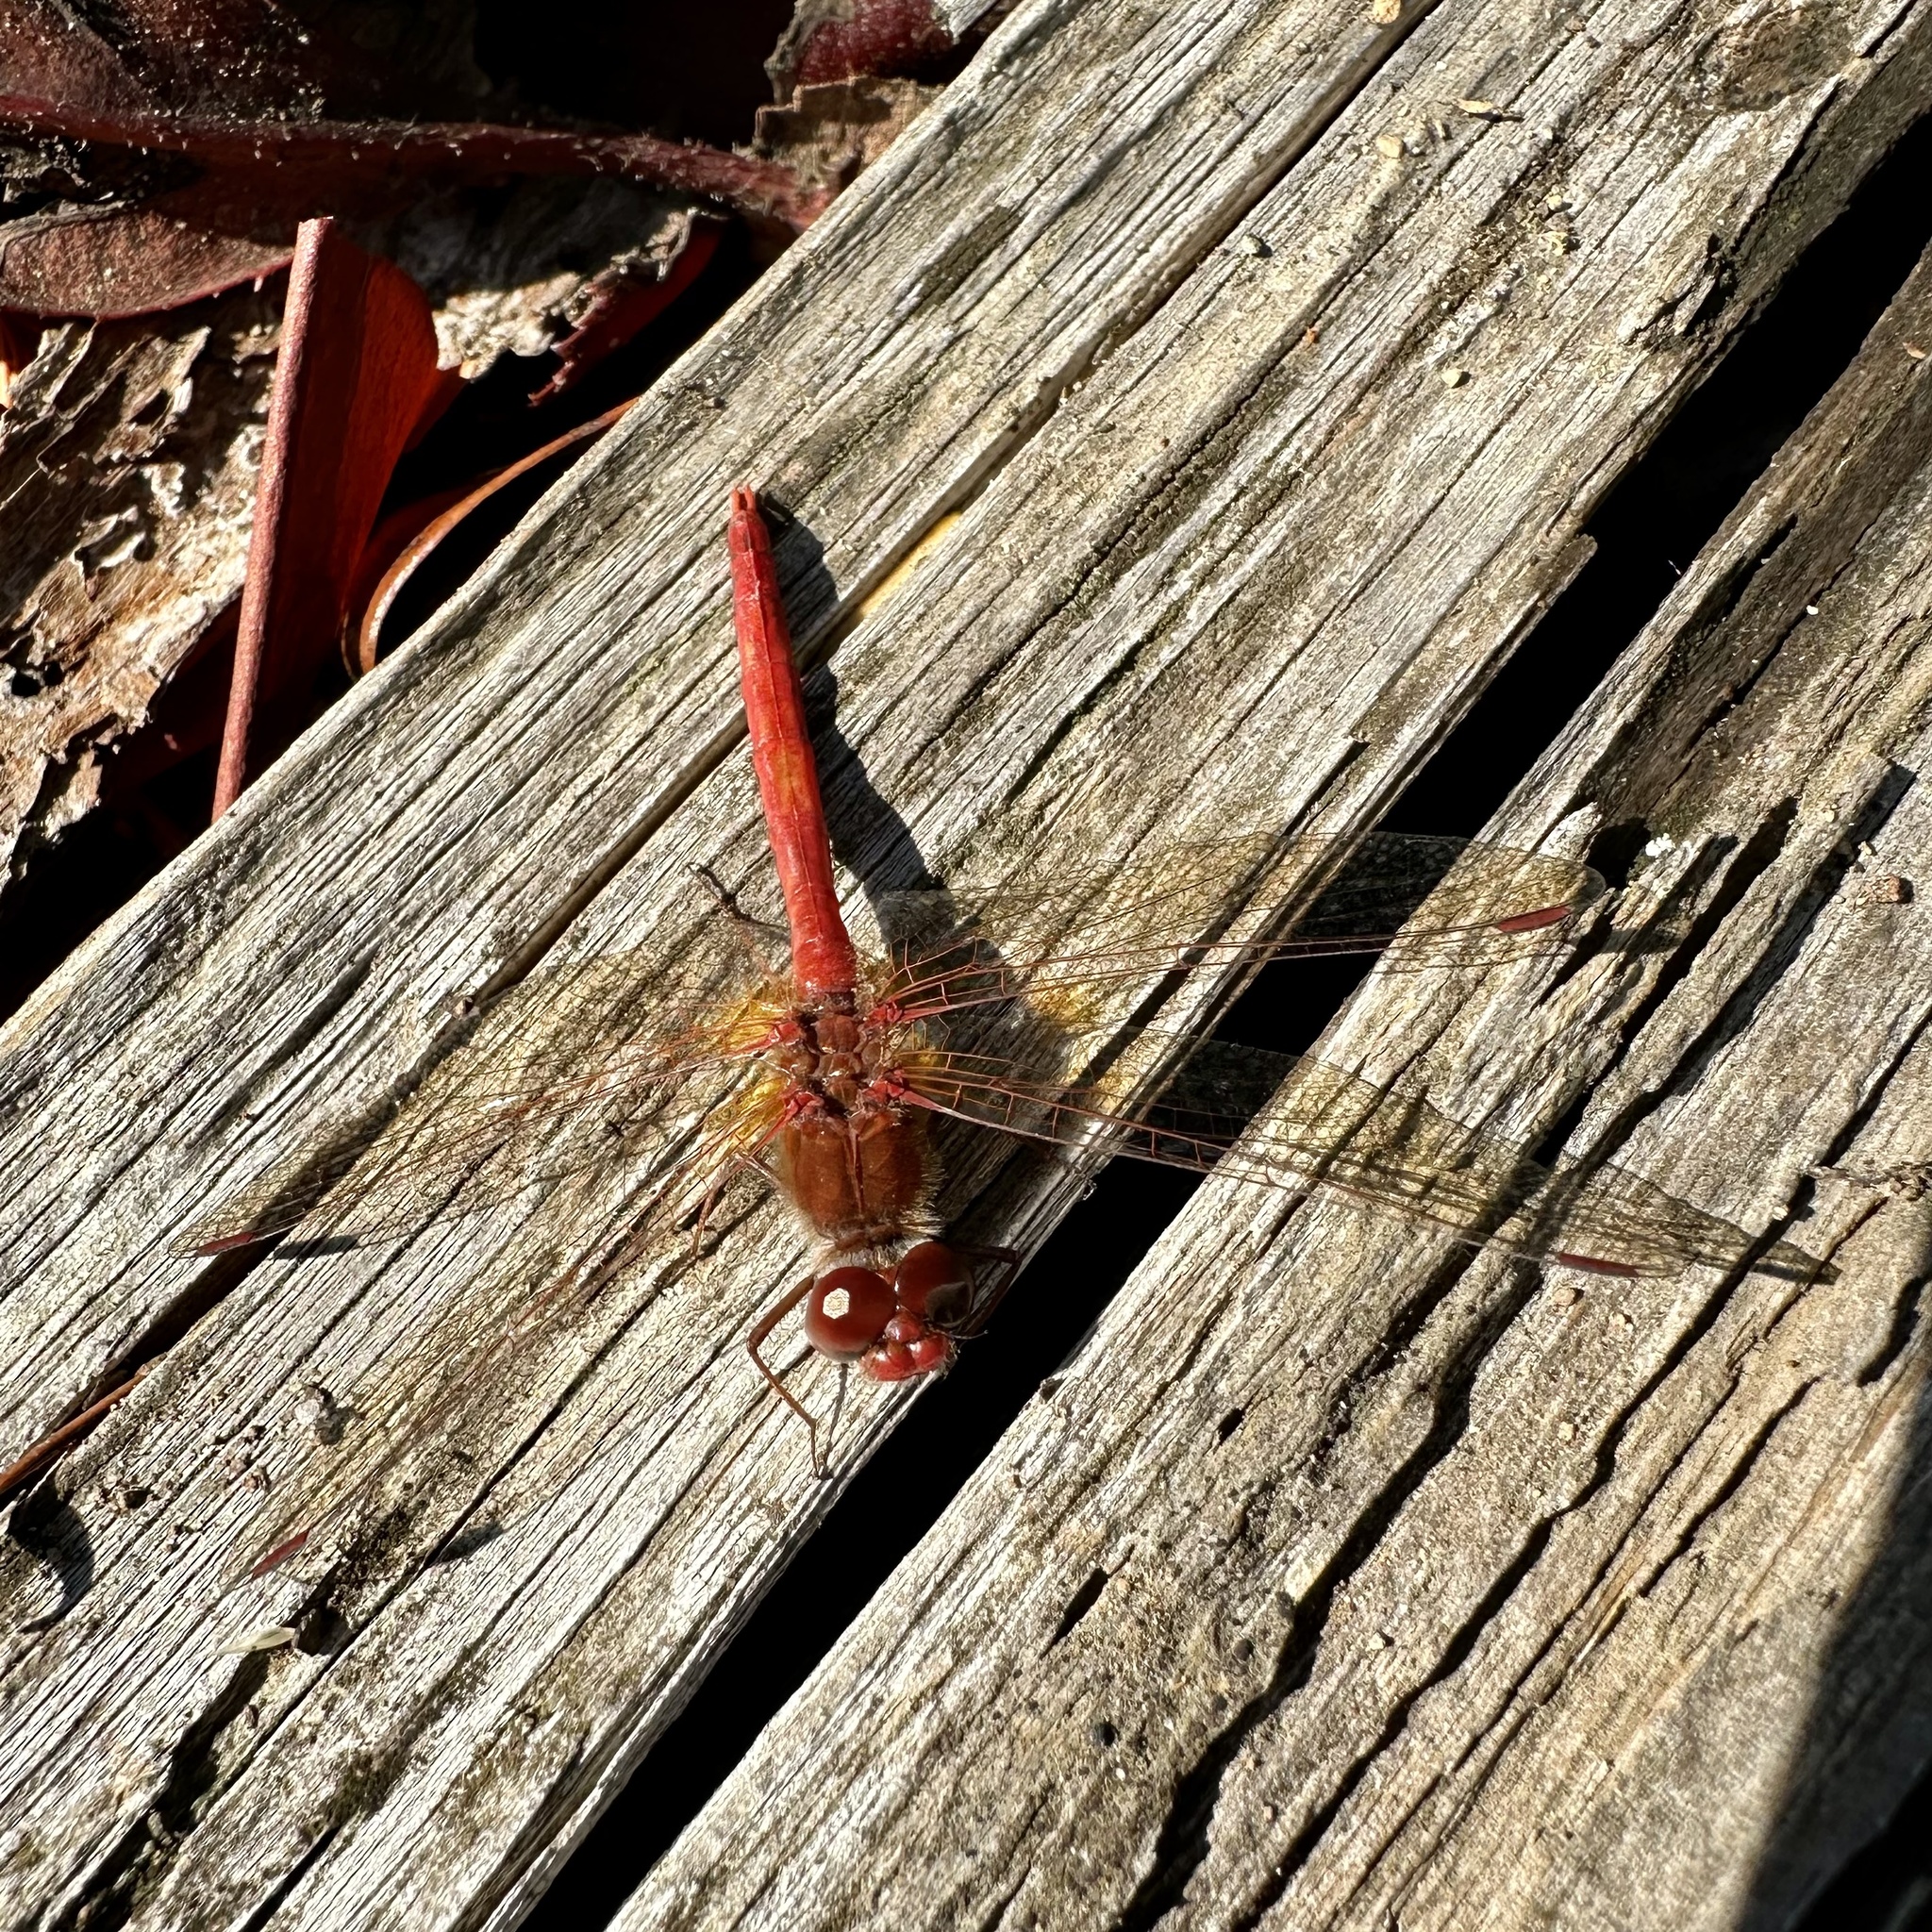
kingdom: Animalia
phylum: Arthropoda
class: Insecta
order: Odonata
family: Libellulidae
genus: Sympetrum
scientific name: Sympetrum vicinum
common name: Autumn meadowhawk
